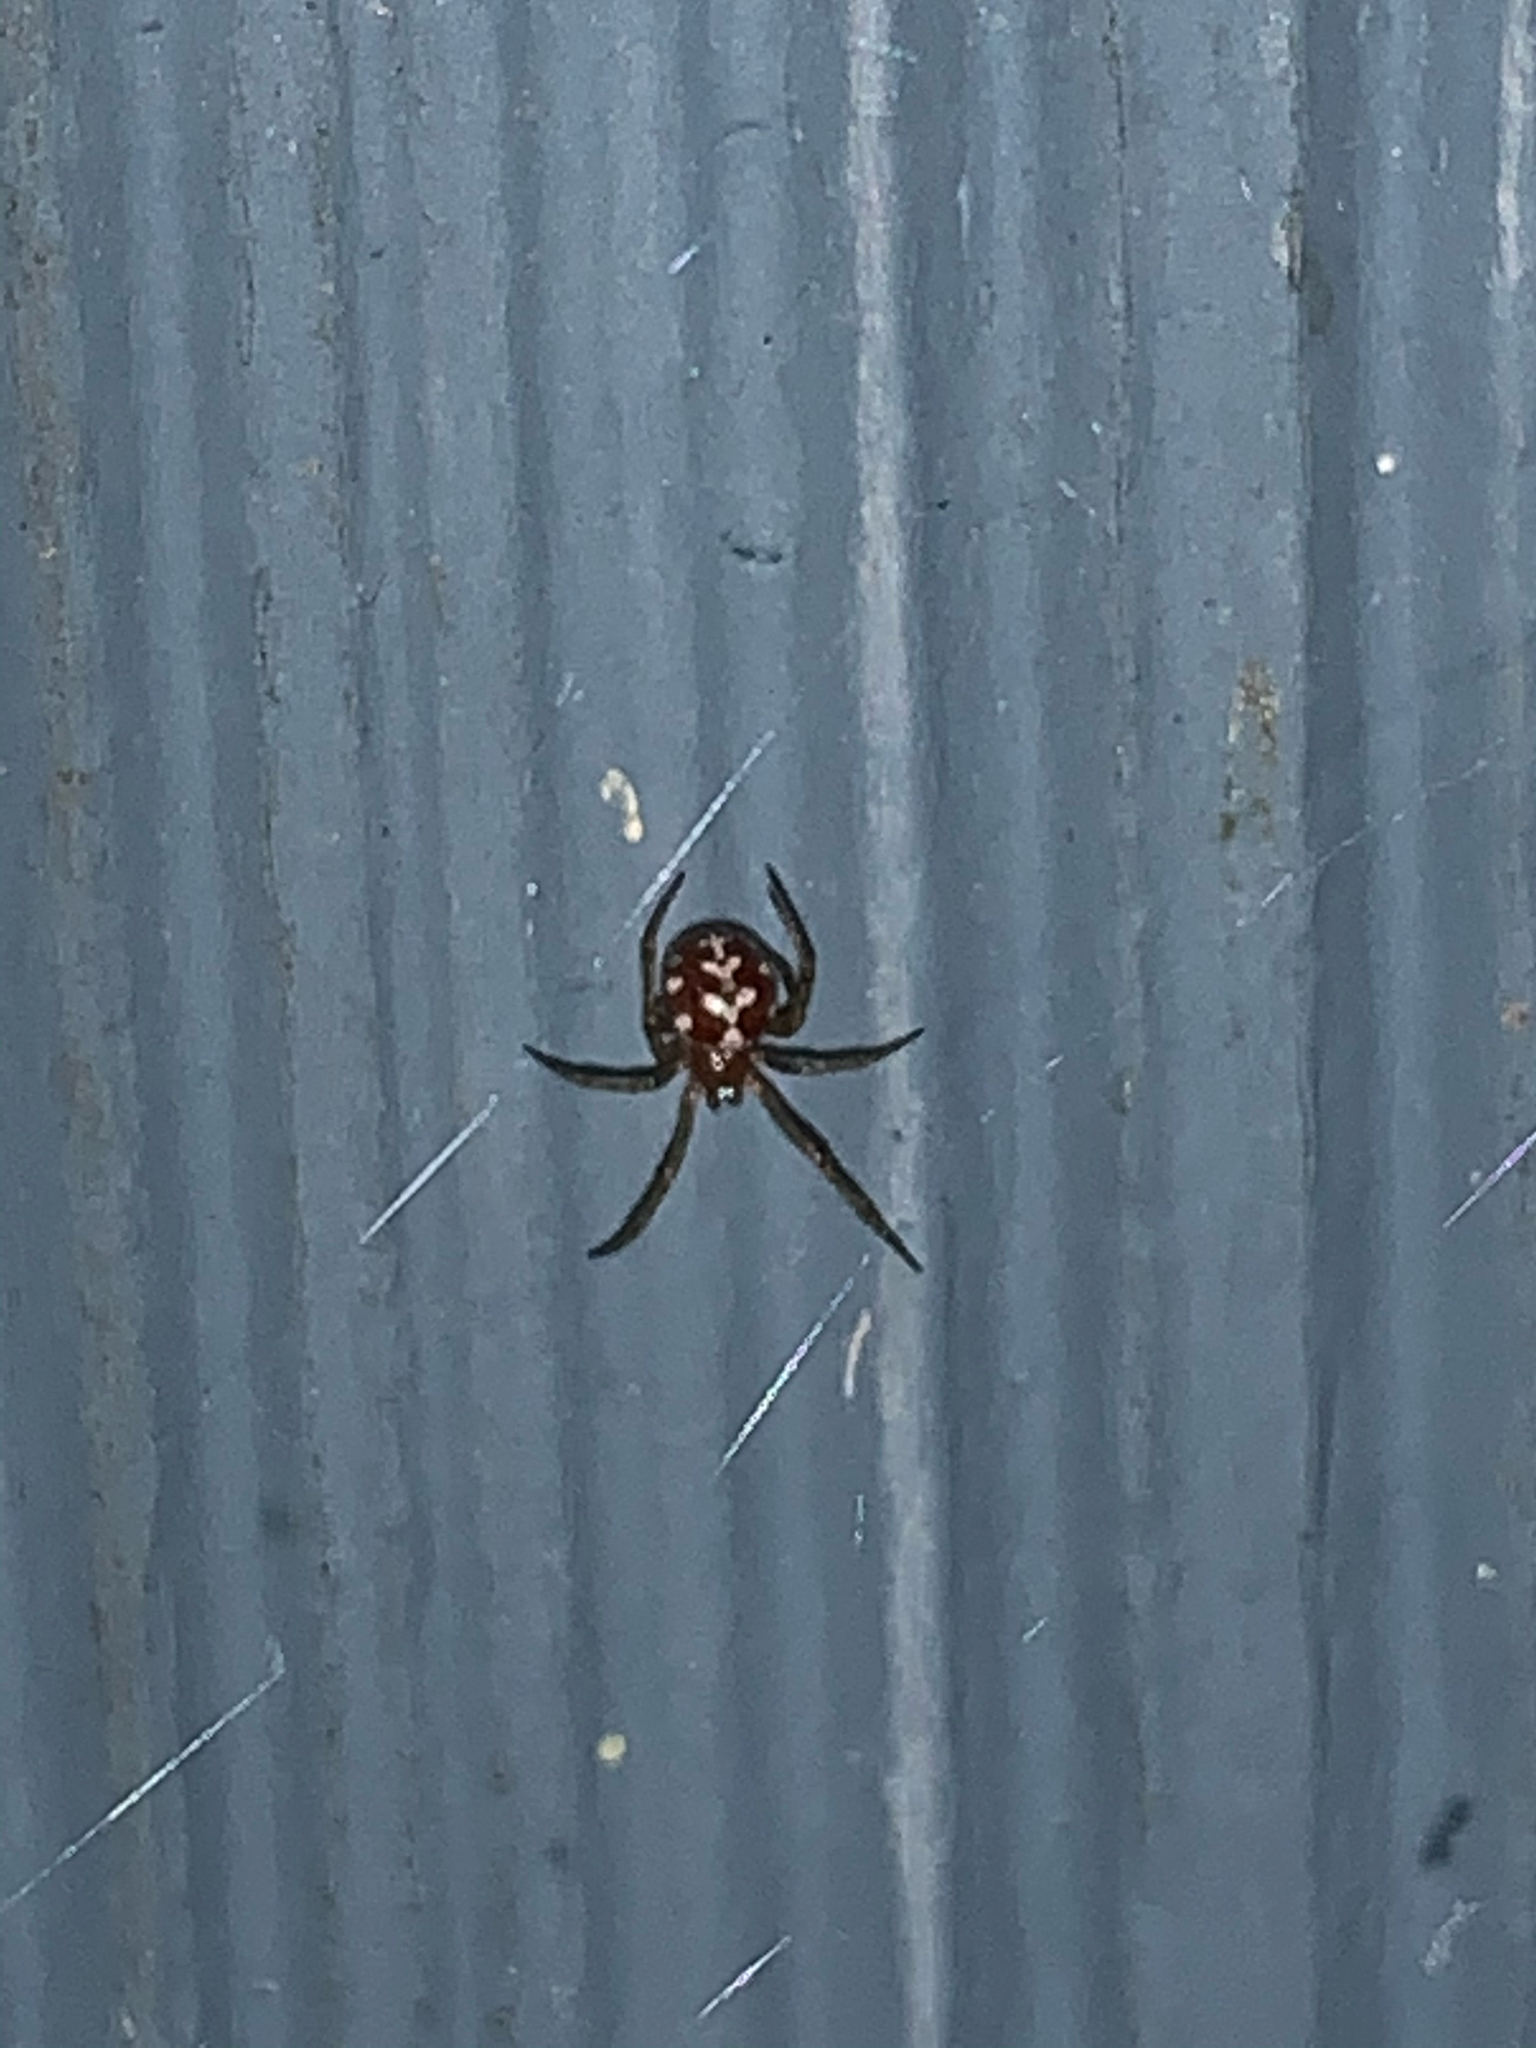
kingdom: Animalia
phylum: Arthropoda
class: Arachnida
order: Araneae
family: Theridiidae
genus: Steatoda
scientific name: Steatoda triangulosa
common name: Triangulate bud spider
